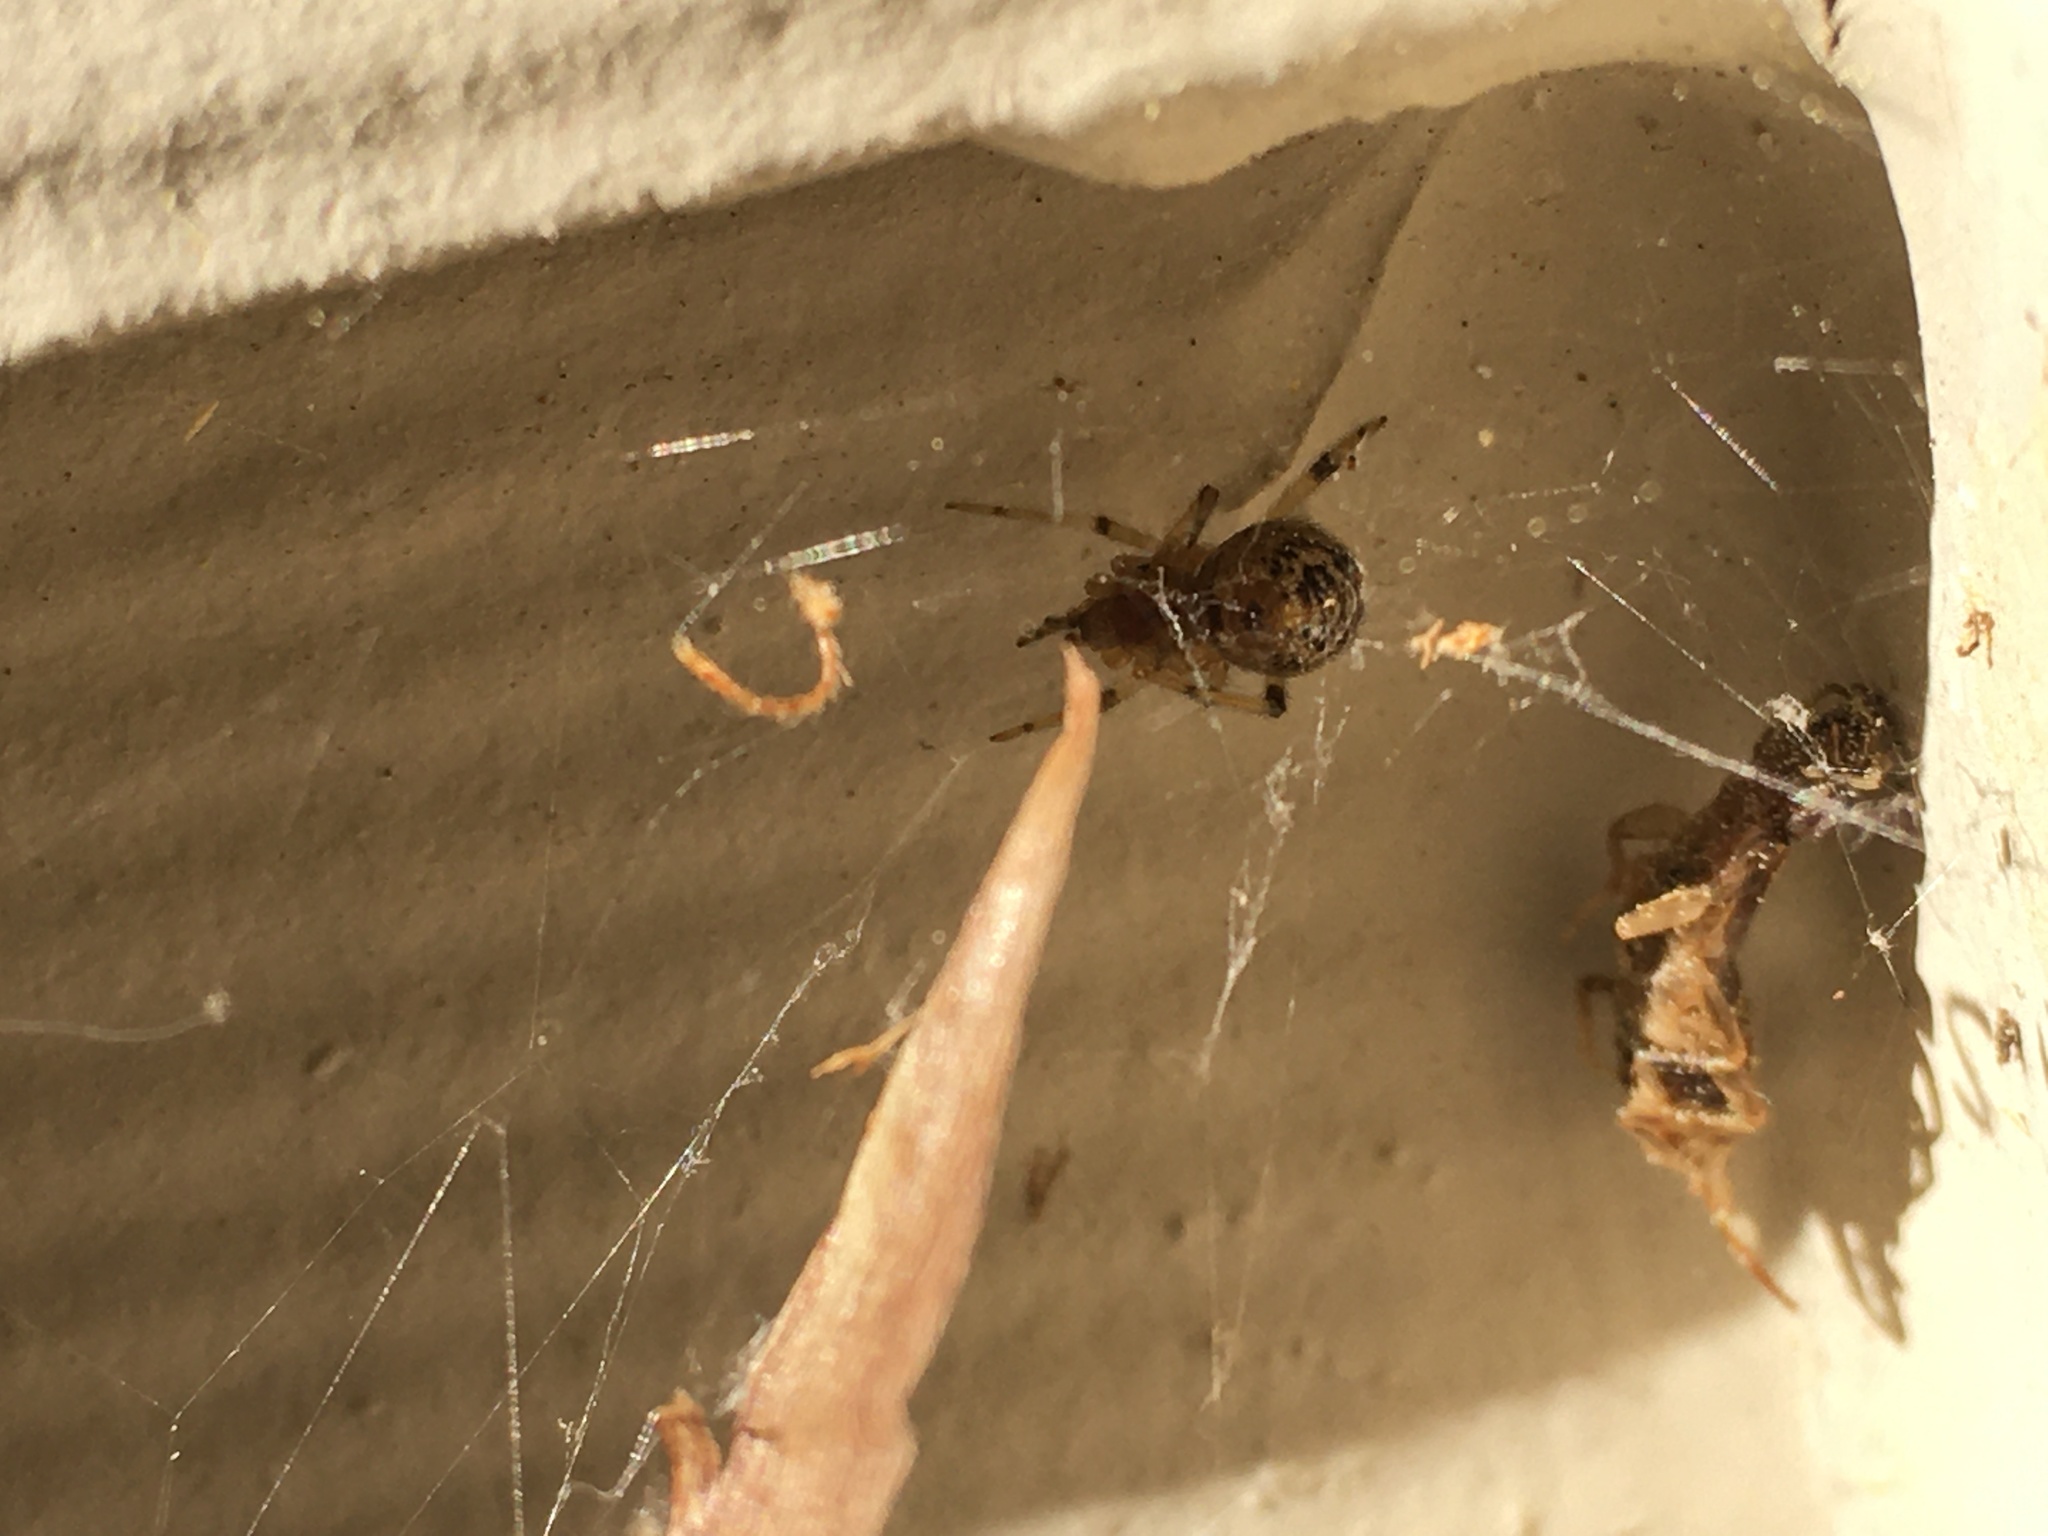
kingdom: Animalia
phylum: Arthropoda
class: Arachnida
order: Araneae
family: Theridiidae
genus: Parasteatoda
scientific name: Parasteatoda tepidariorum
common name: Common house spider
